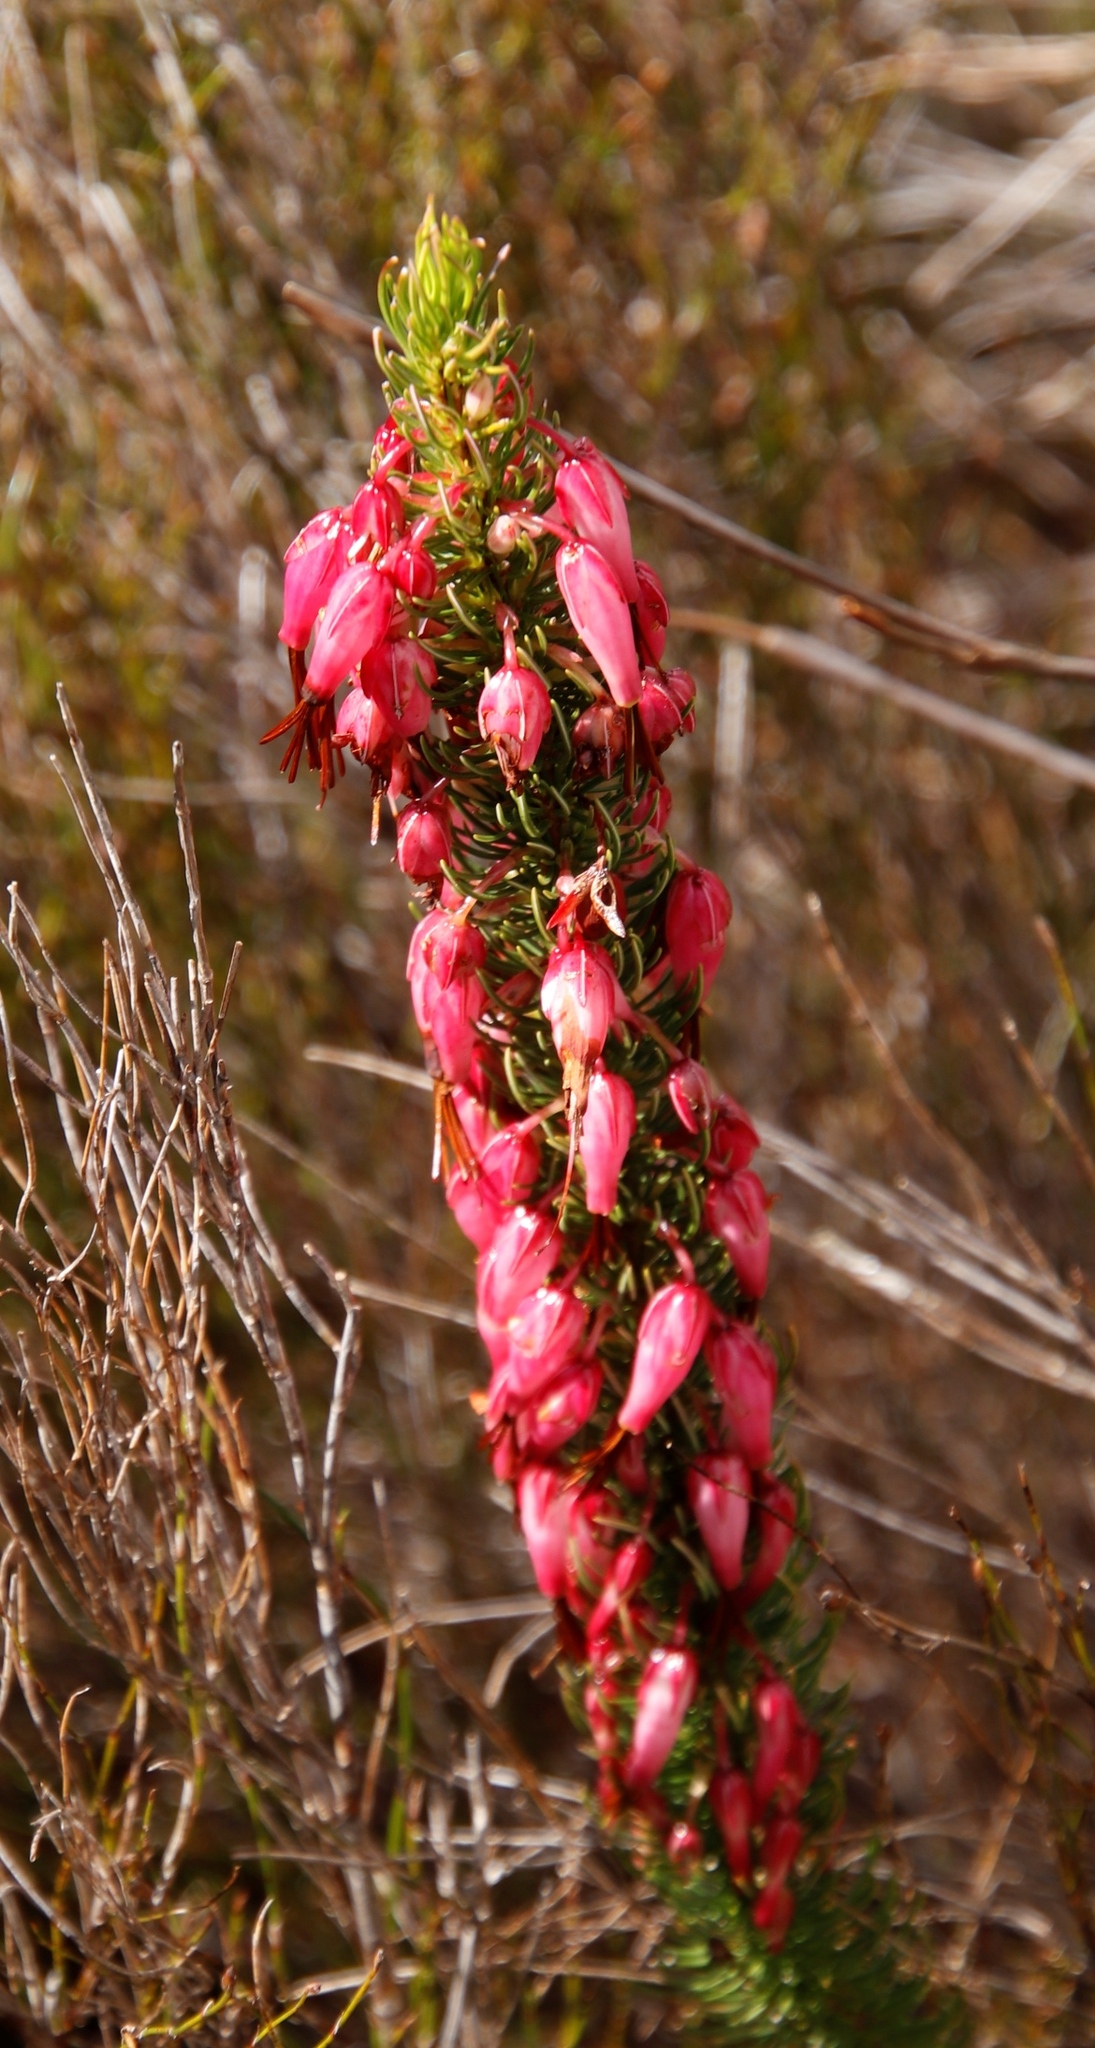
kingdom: Plantae
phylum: Tracheophyta
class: Magnoliopsida
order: Ericales
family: Ericaceae
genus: Erica
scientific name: Erica plukenetii
